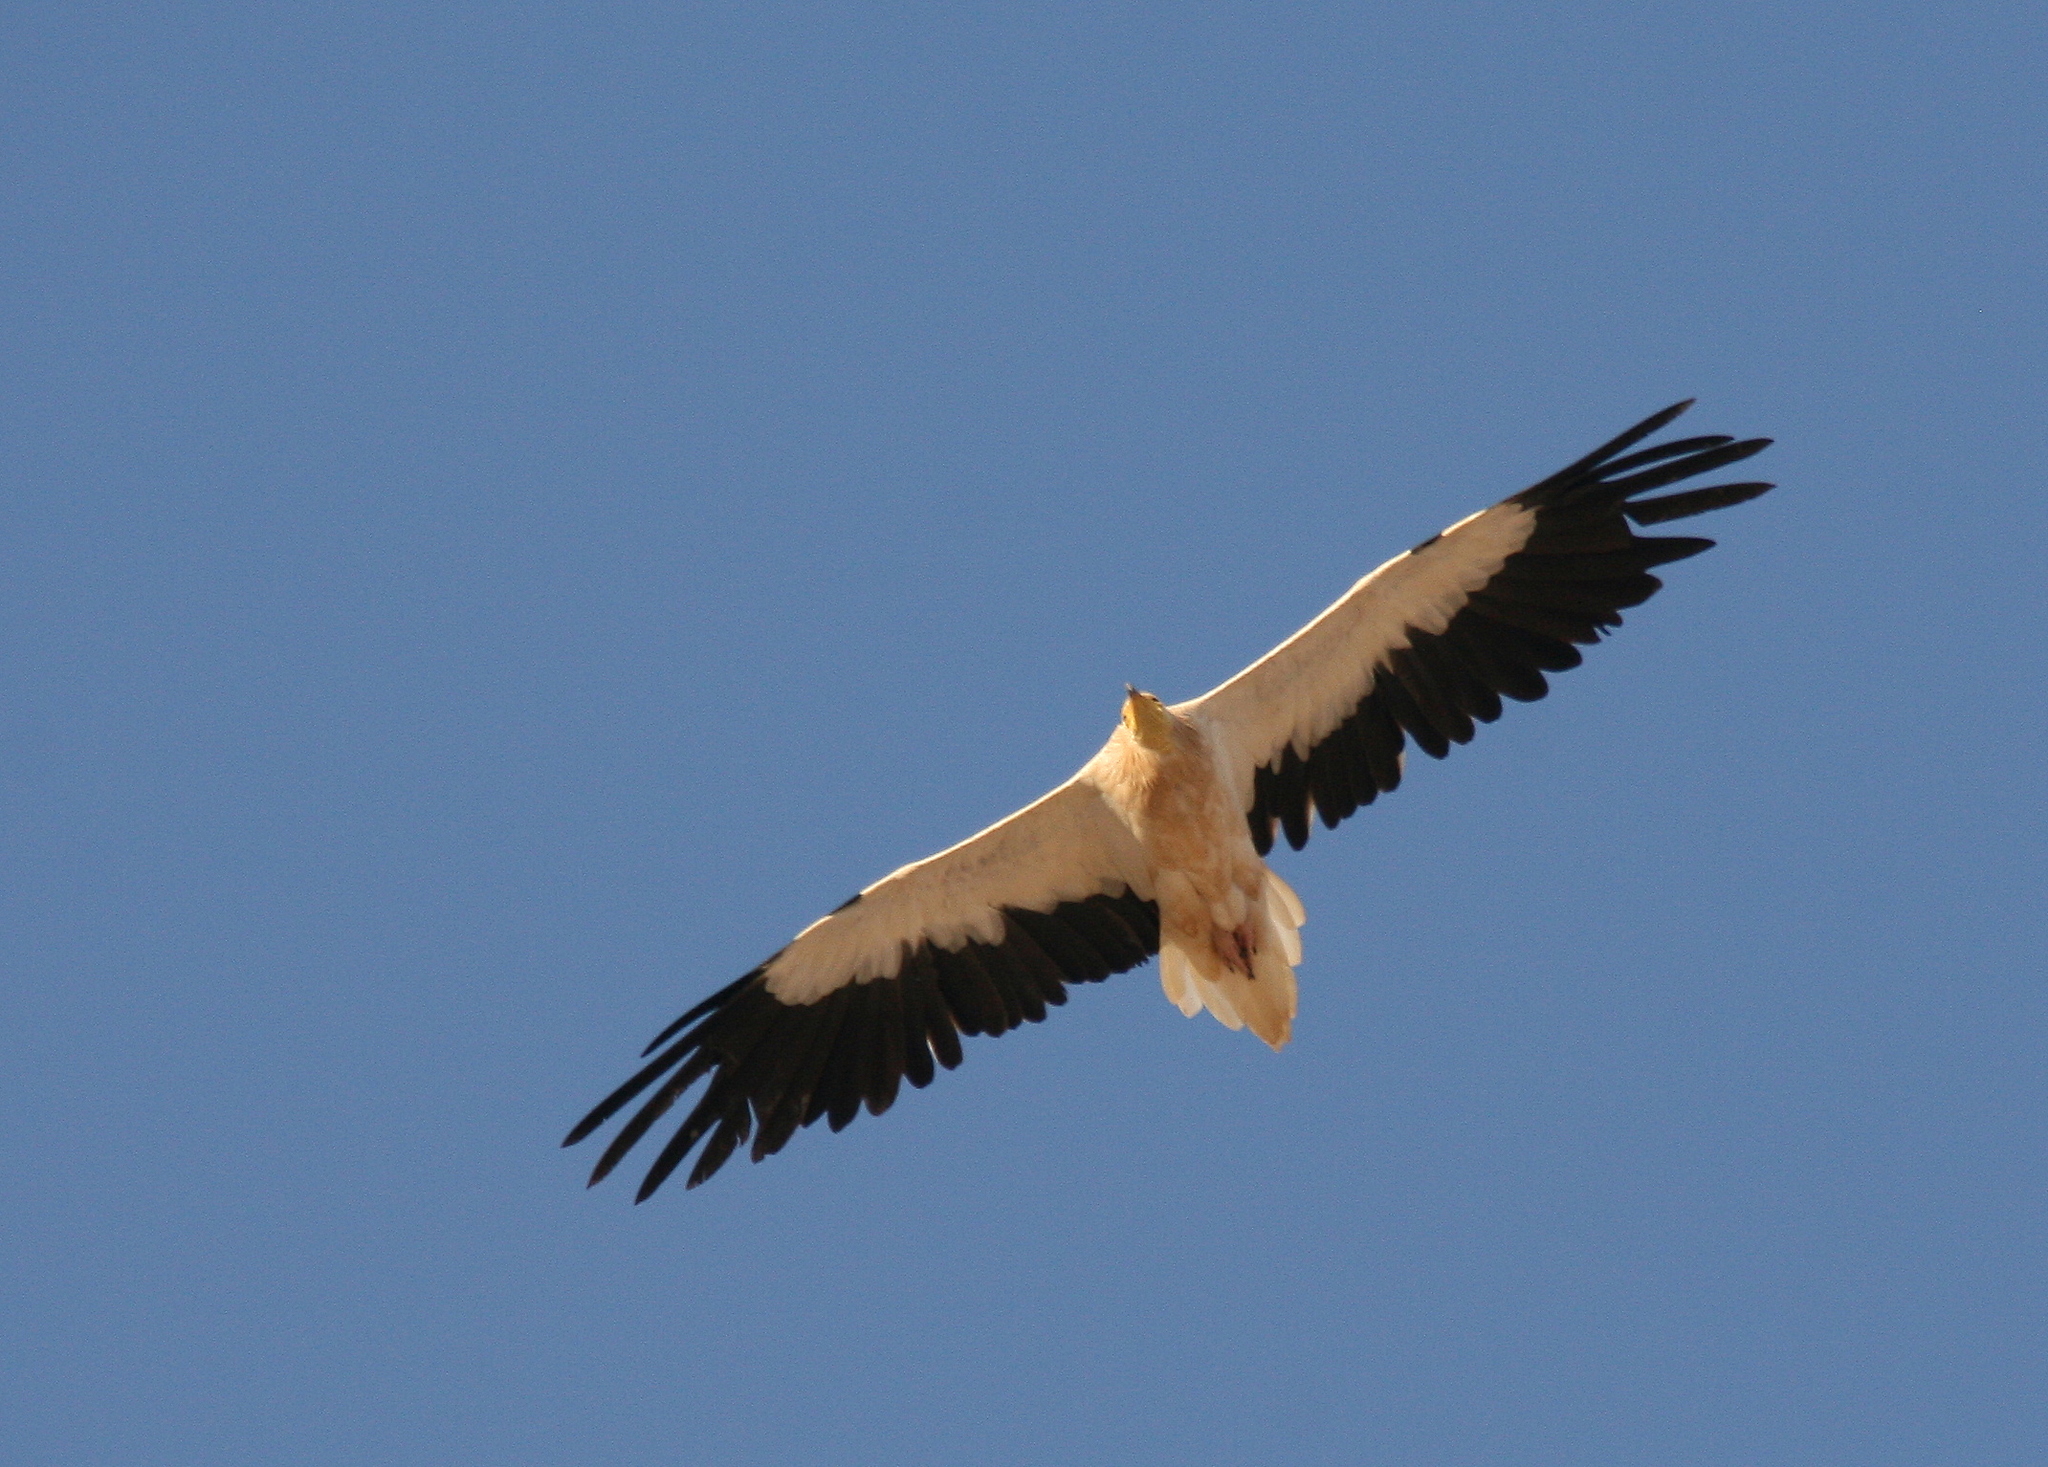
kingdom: Animalia
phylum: Chordata
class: Aves
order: Accipitriformes
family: Accipitridae
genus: Neophron
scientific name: Neophron percnopterus
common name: Egyptian vulture
